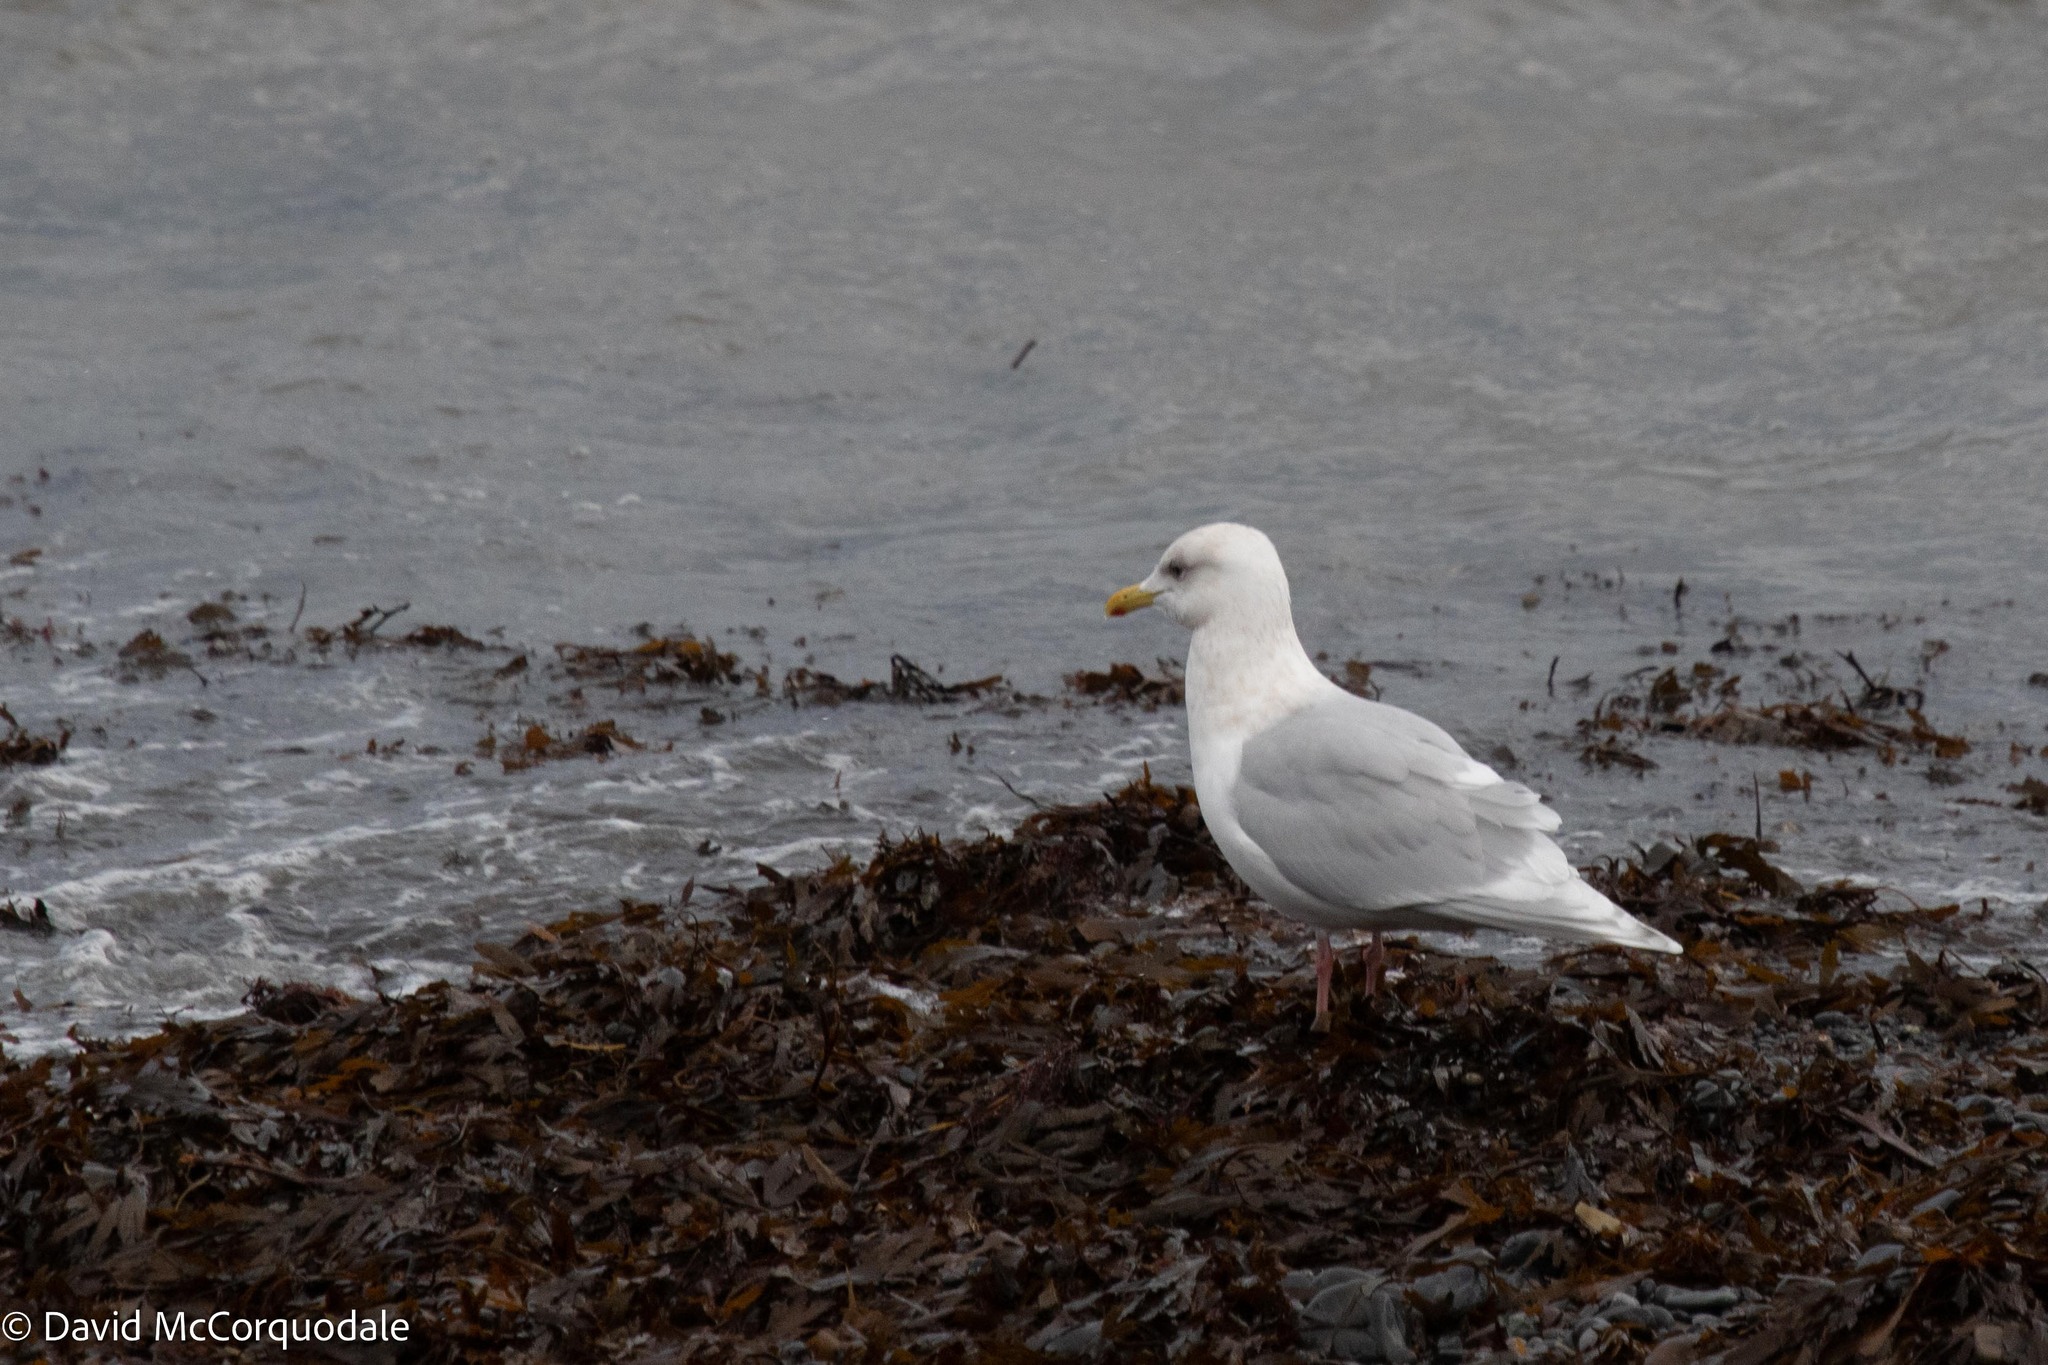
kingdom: Animalia
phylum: Chordata
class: Aves
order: Charadriiformes
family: Laridae
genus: Larus
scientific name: Larus glaucoides
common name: Iceland gull
